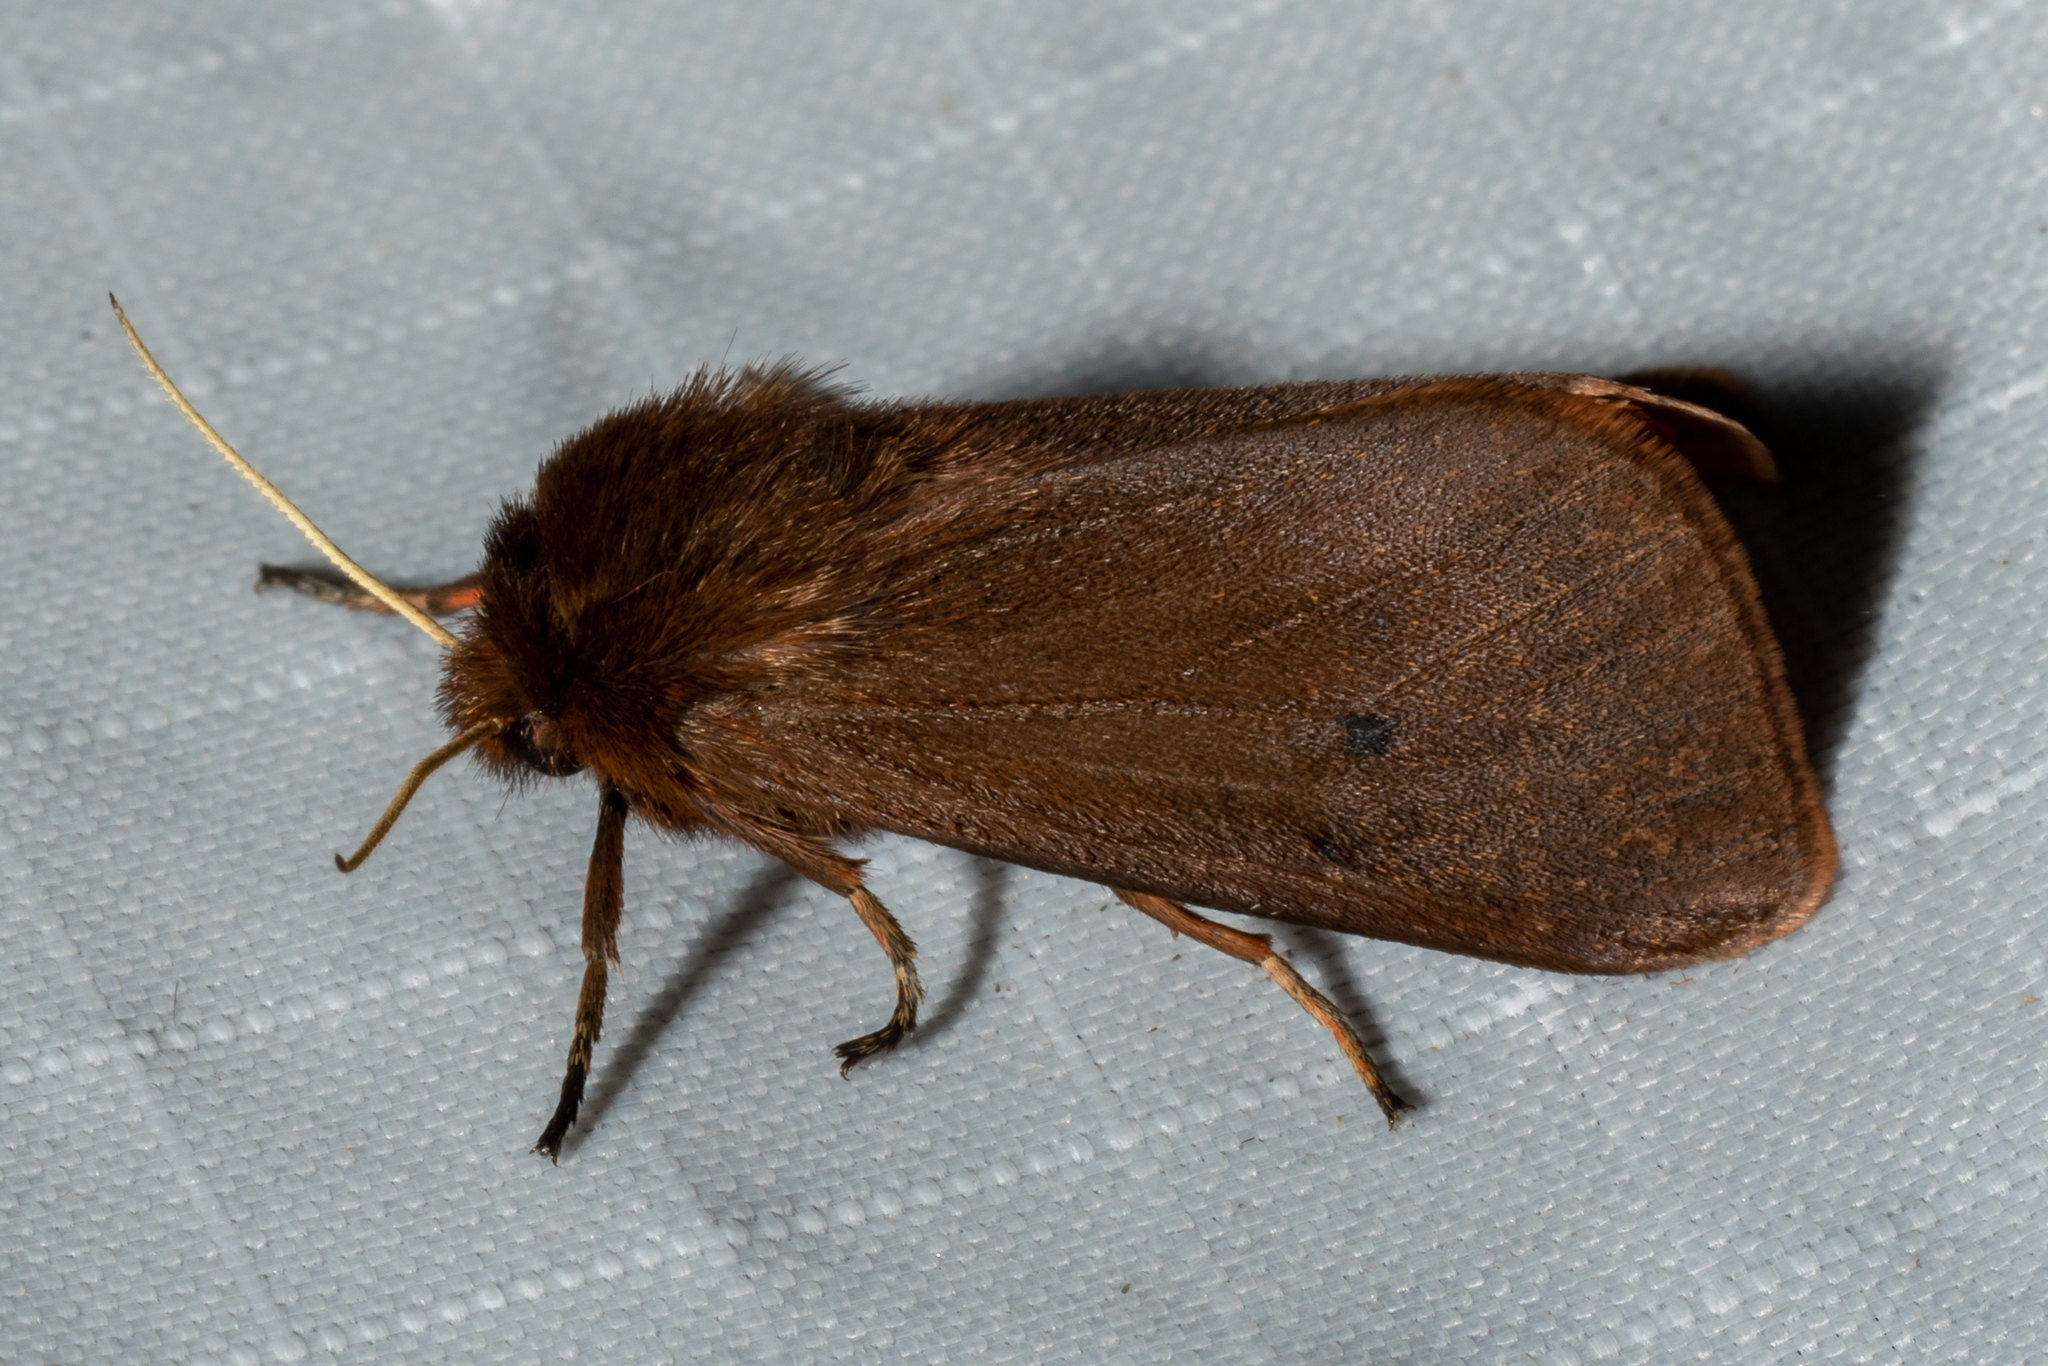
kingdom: Animalia
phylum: Arthropoda
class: Insecta
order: Lepidoptera
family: Erebidae
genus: Phragmatobia
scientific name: Phragmatobia fuliginosa
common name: Ruby tiger
